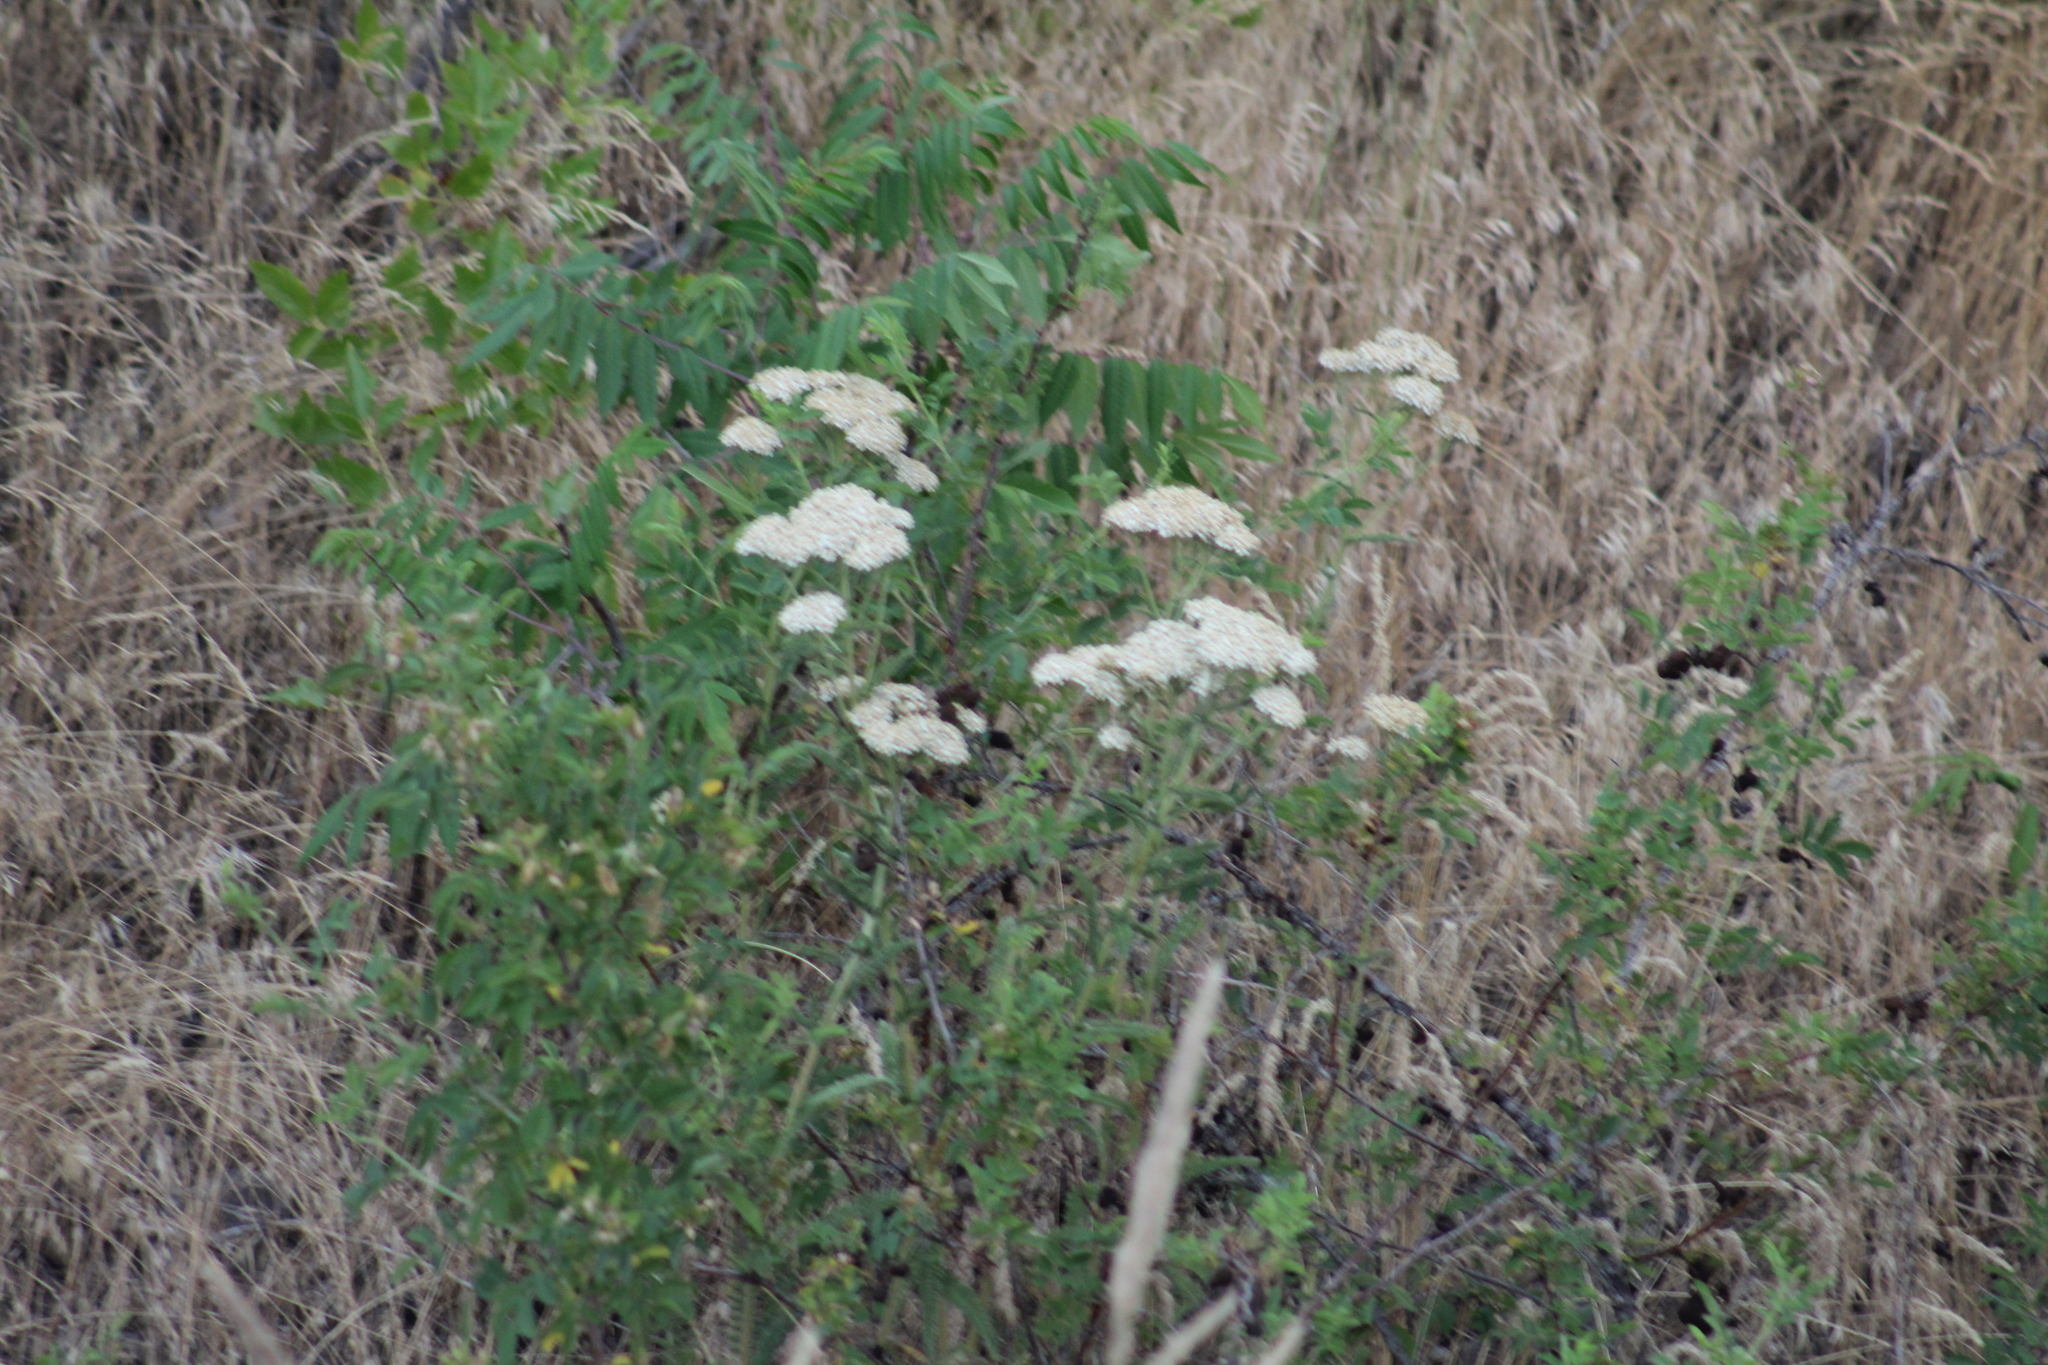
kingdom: Plantae
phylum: Tracheophyta
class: Magnoliopsida
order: Asterales
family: Asteraceae
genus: Achillea
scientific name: Achillea millefolium
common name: Yarrow
